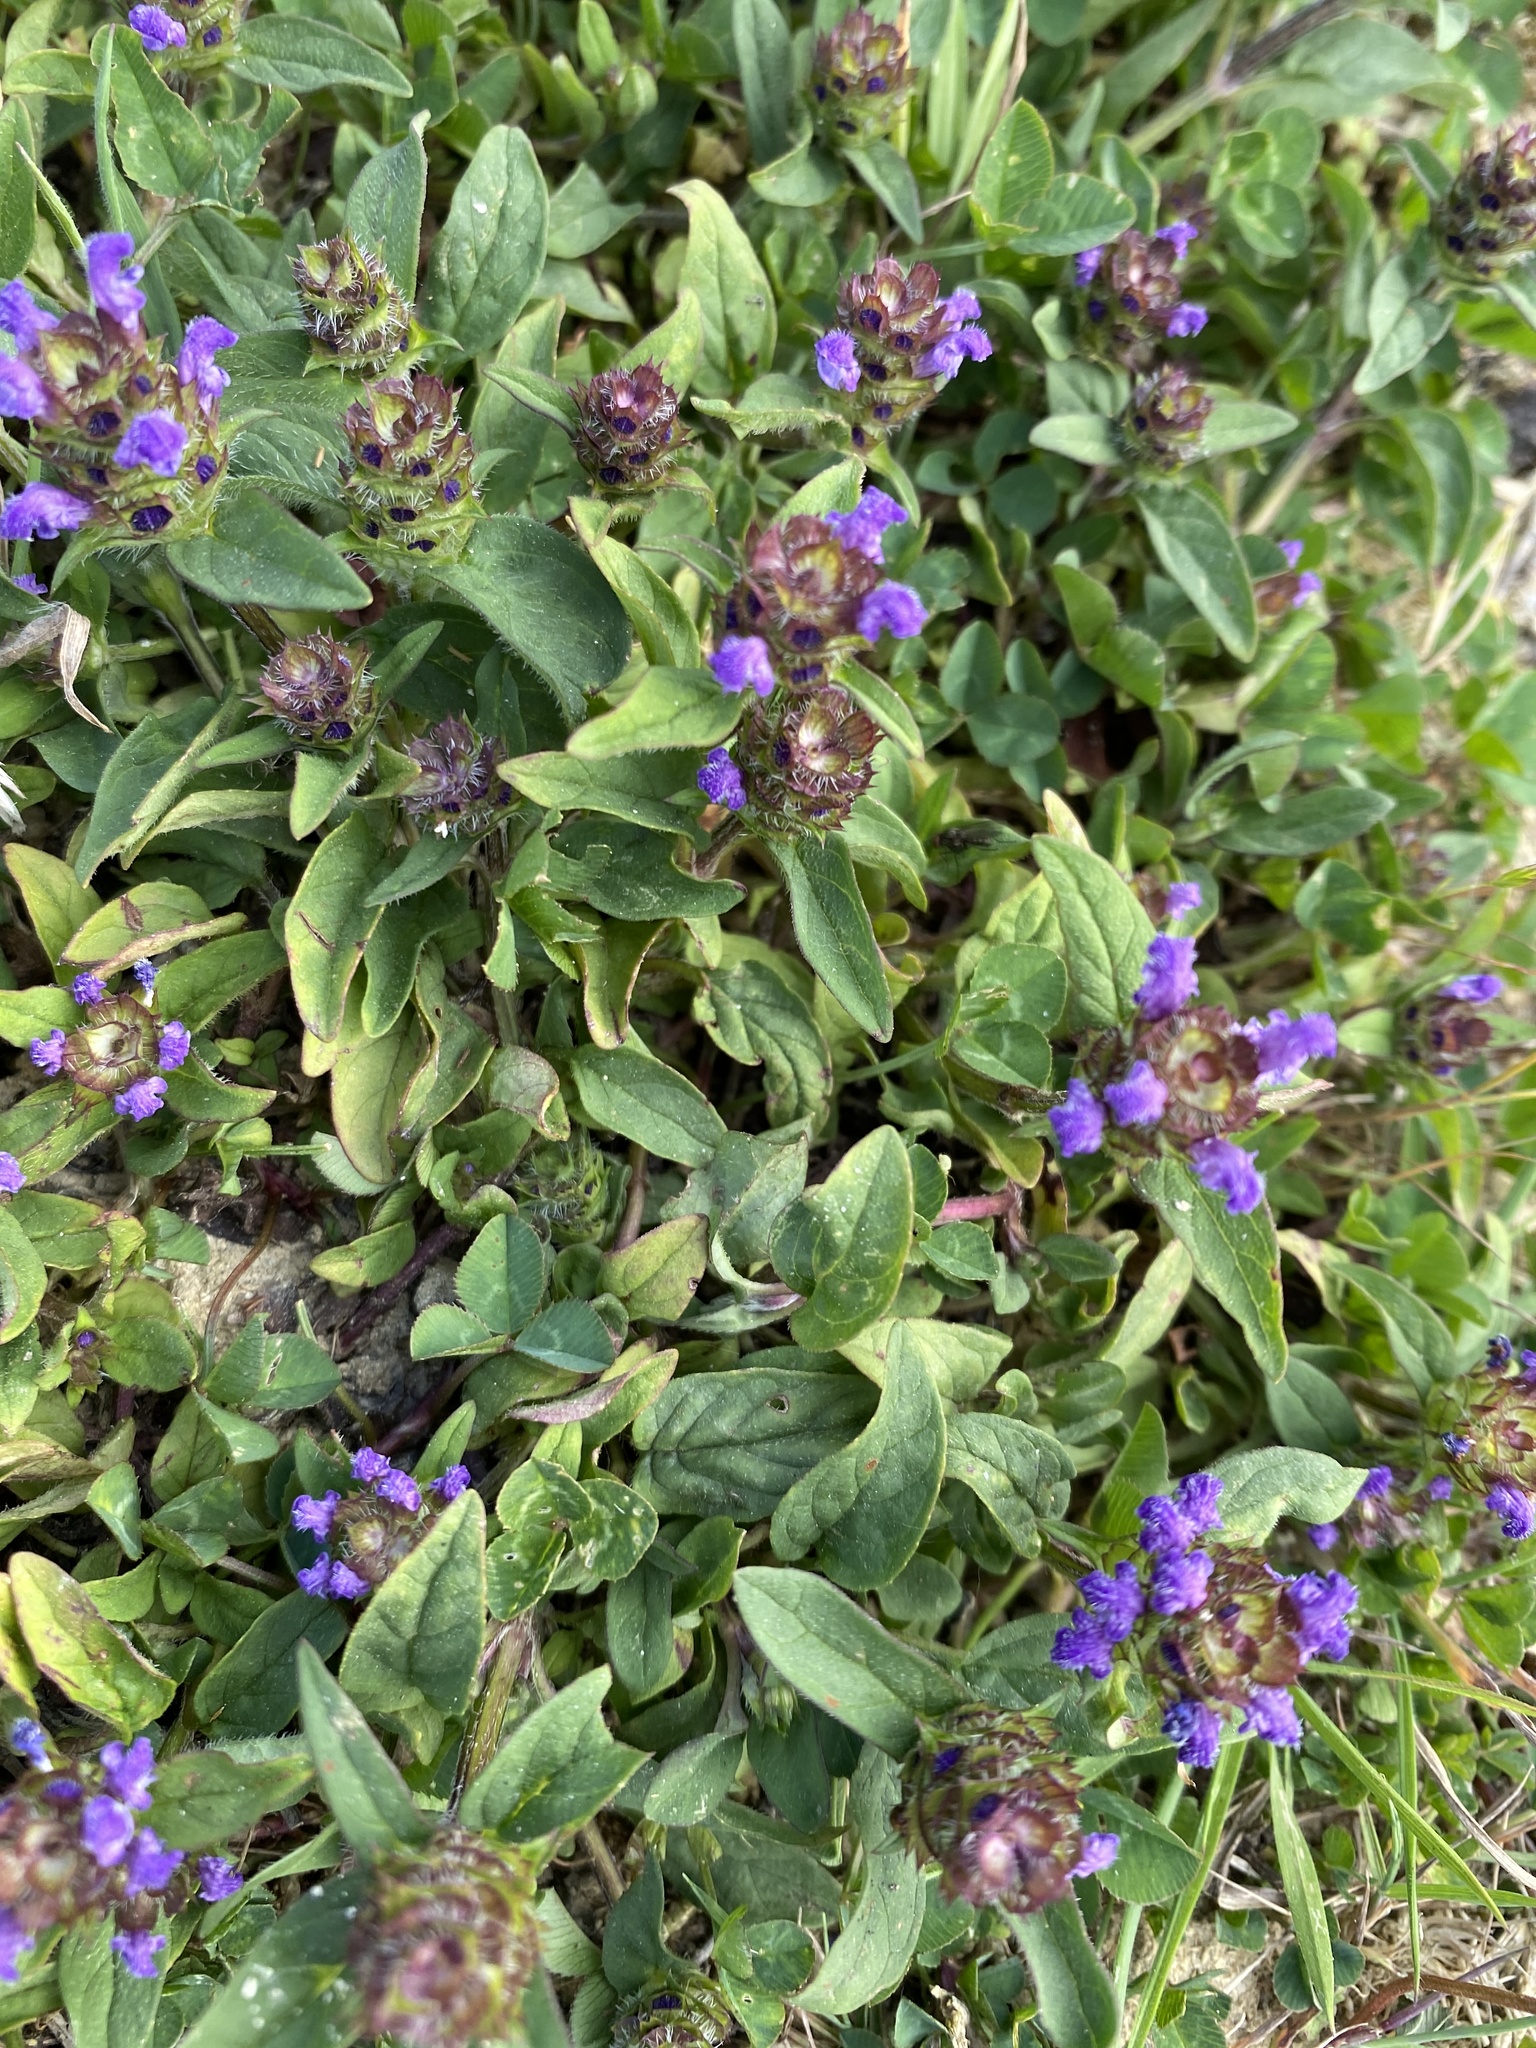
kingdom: Plantae
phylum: Tracheophyta
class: Magnoliopsida
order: Lamiales
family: Lamiaceae
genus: Prunella
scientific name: Prunella vulgaris
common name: Heal-all
